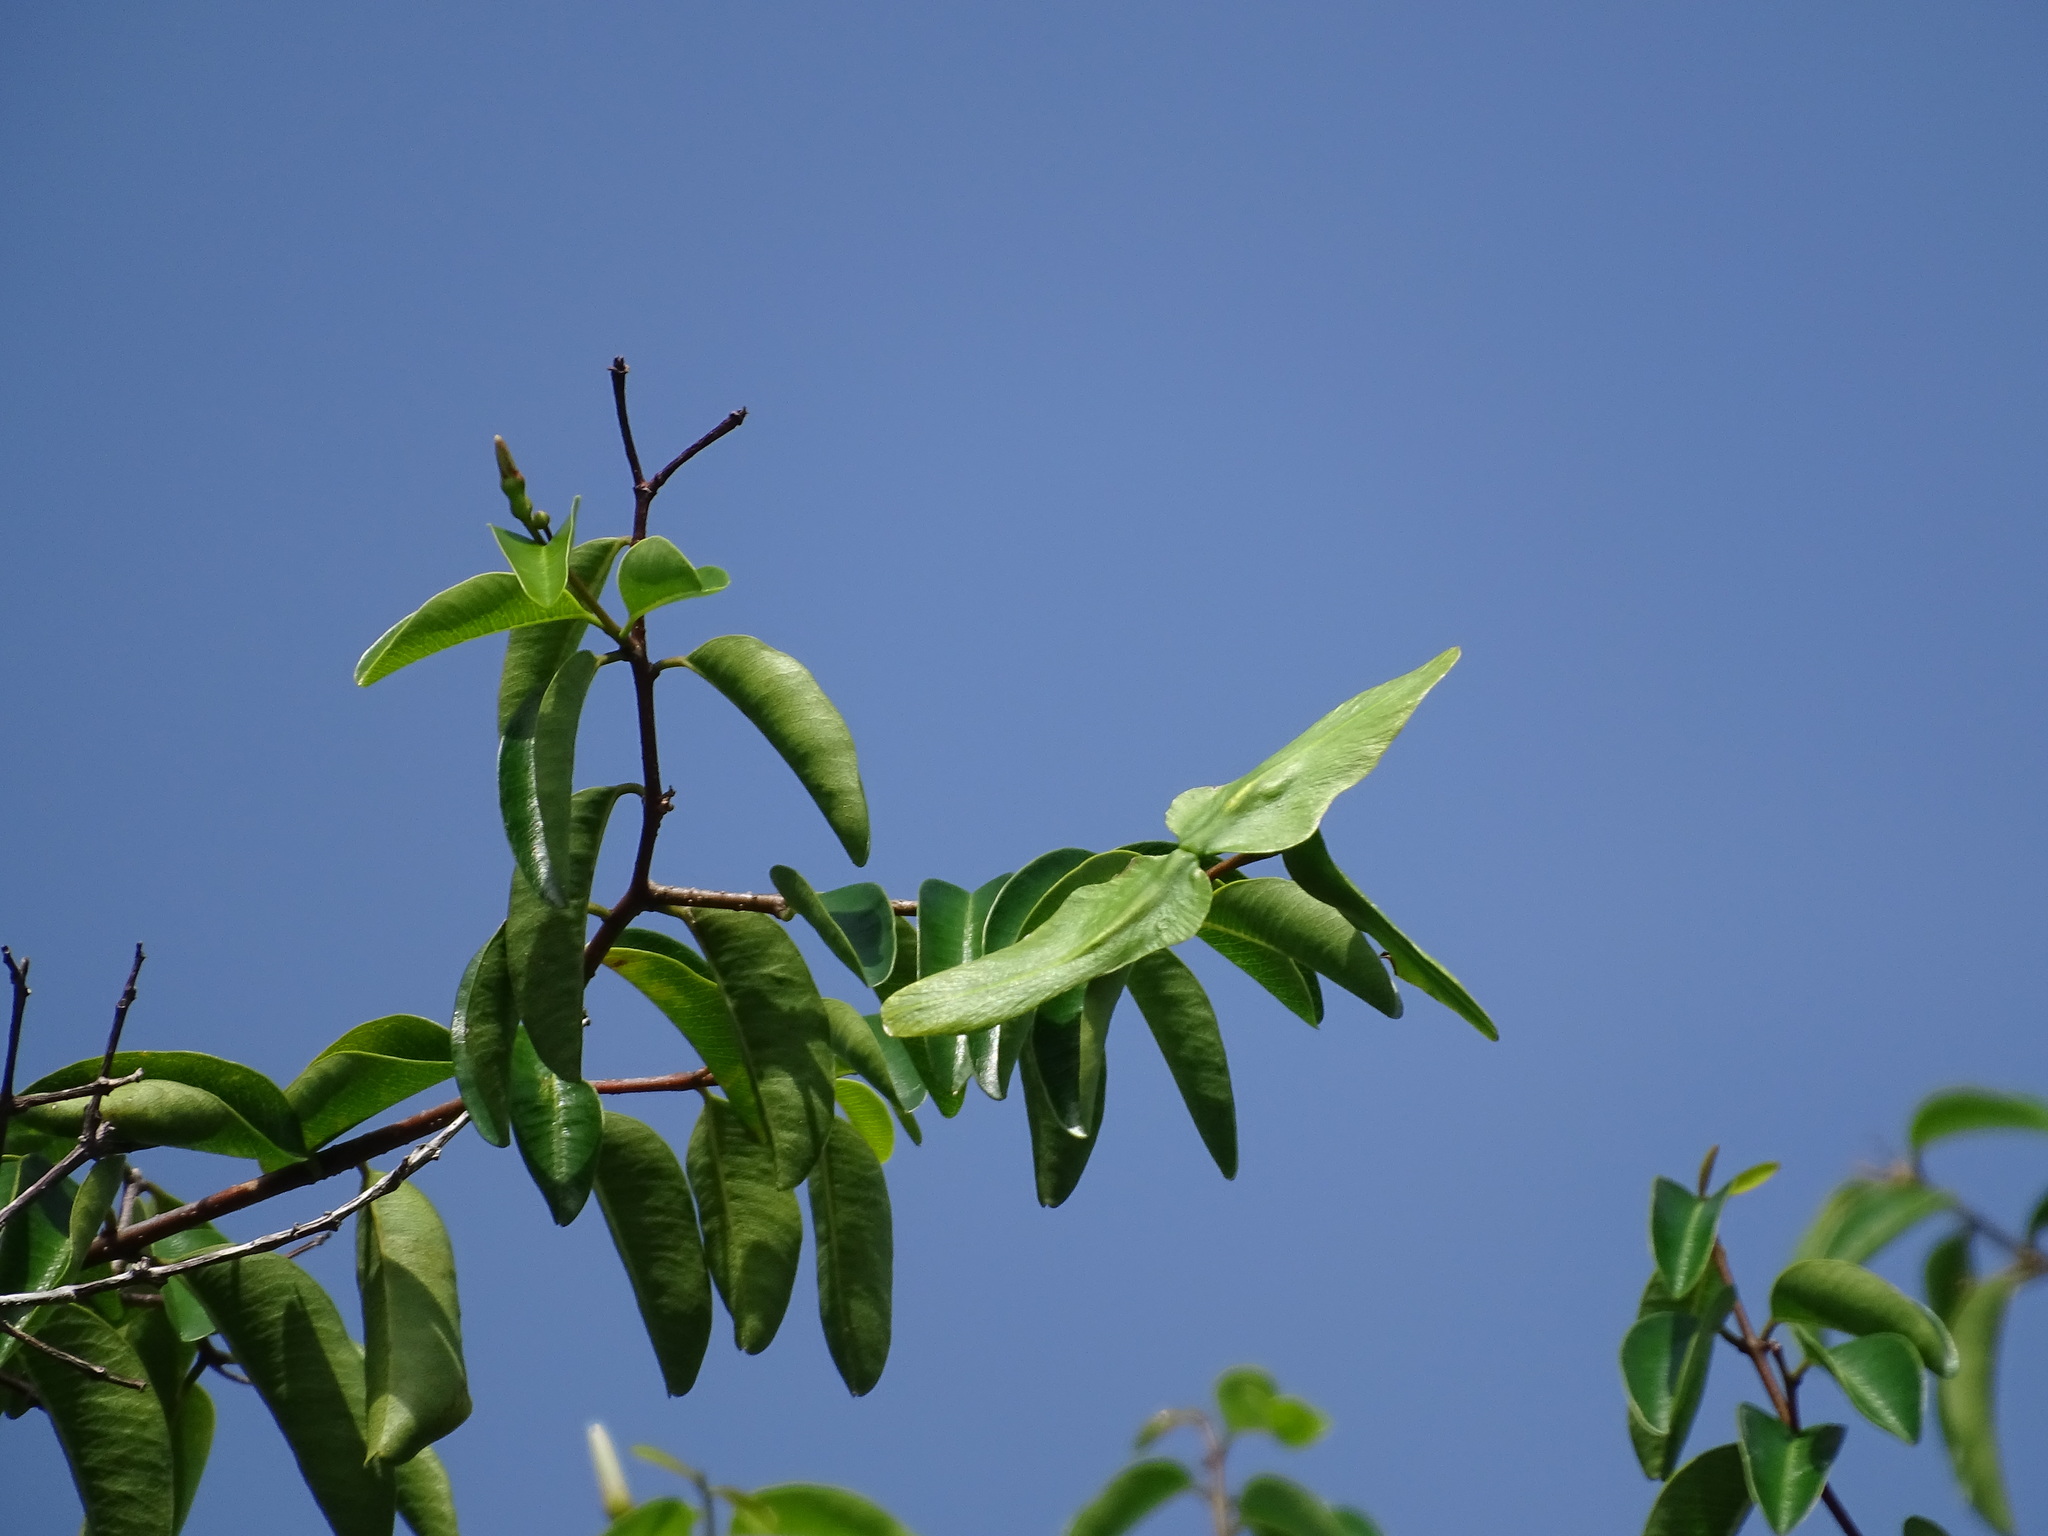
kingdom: Plantae
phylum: Tracheophyta
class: Magnoliopsida
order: Gentianales
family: Apocynaceae
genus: Cameraria
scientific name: Cameraria latifolia
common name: Savanna white poisonwood
